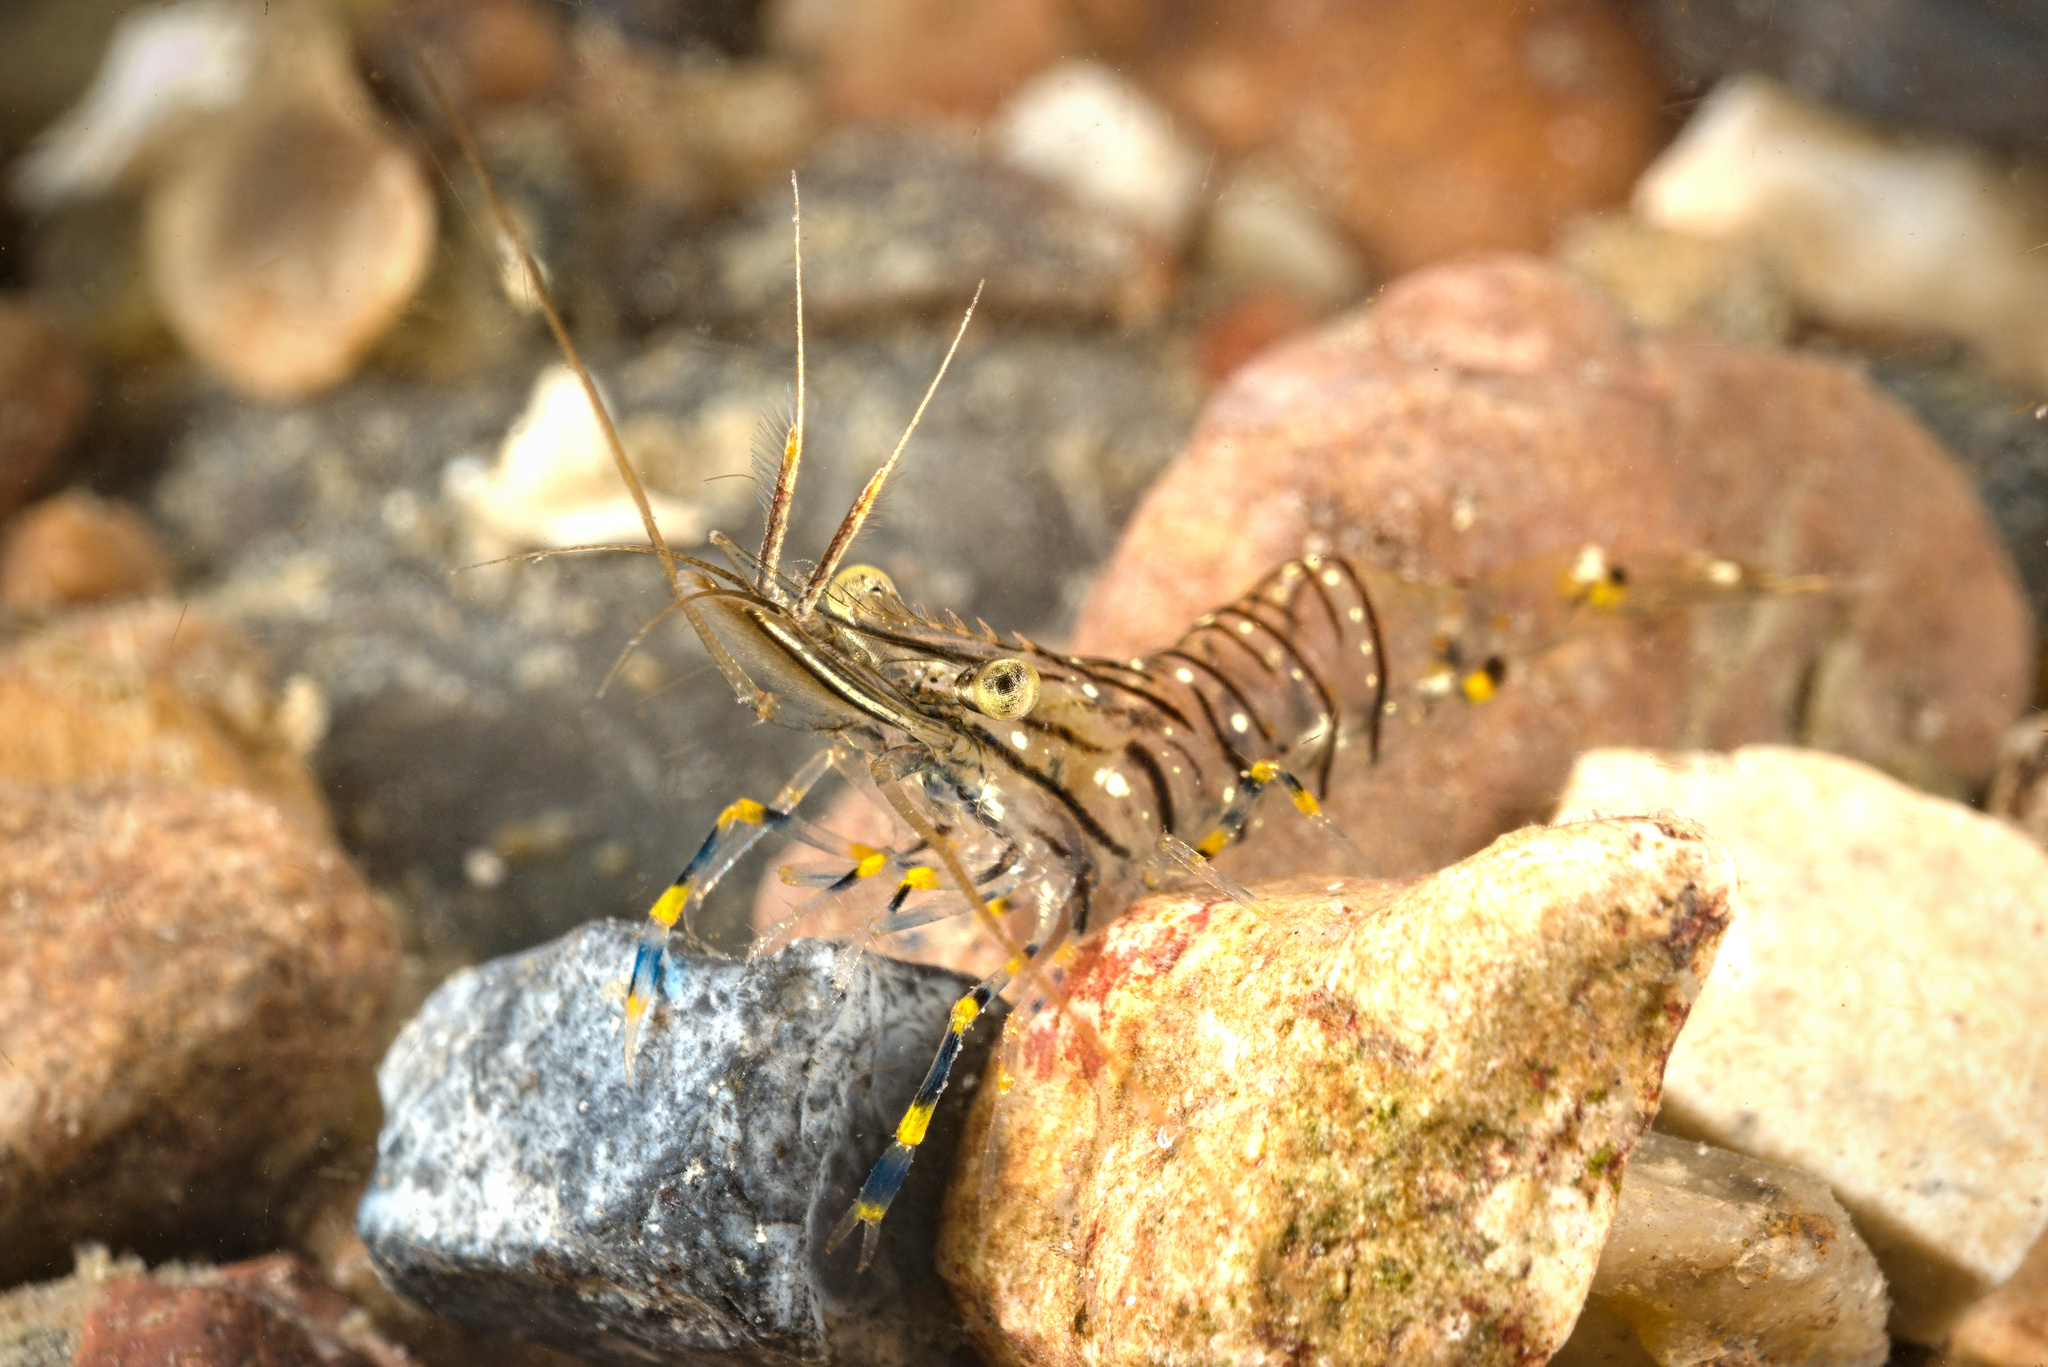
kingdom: Animalia
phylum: Arthropoda
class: Malacostraca
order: Decapoda
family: Palaemonidae
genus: Palaemon
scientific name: Palaemon elegans
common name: Grass prawm
